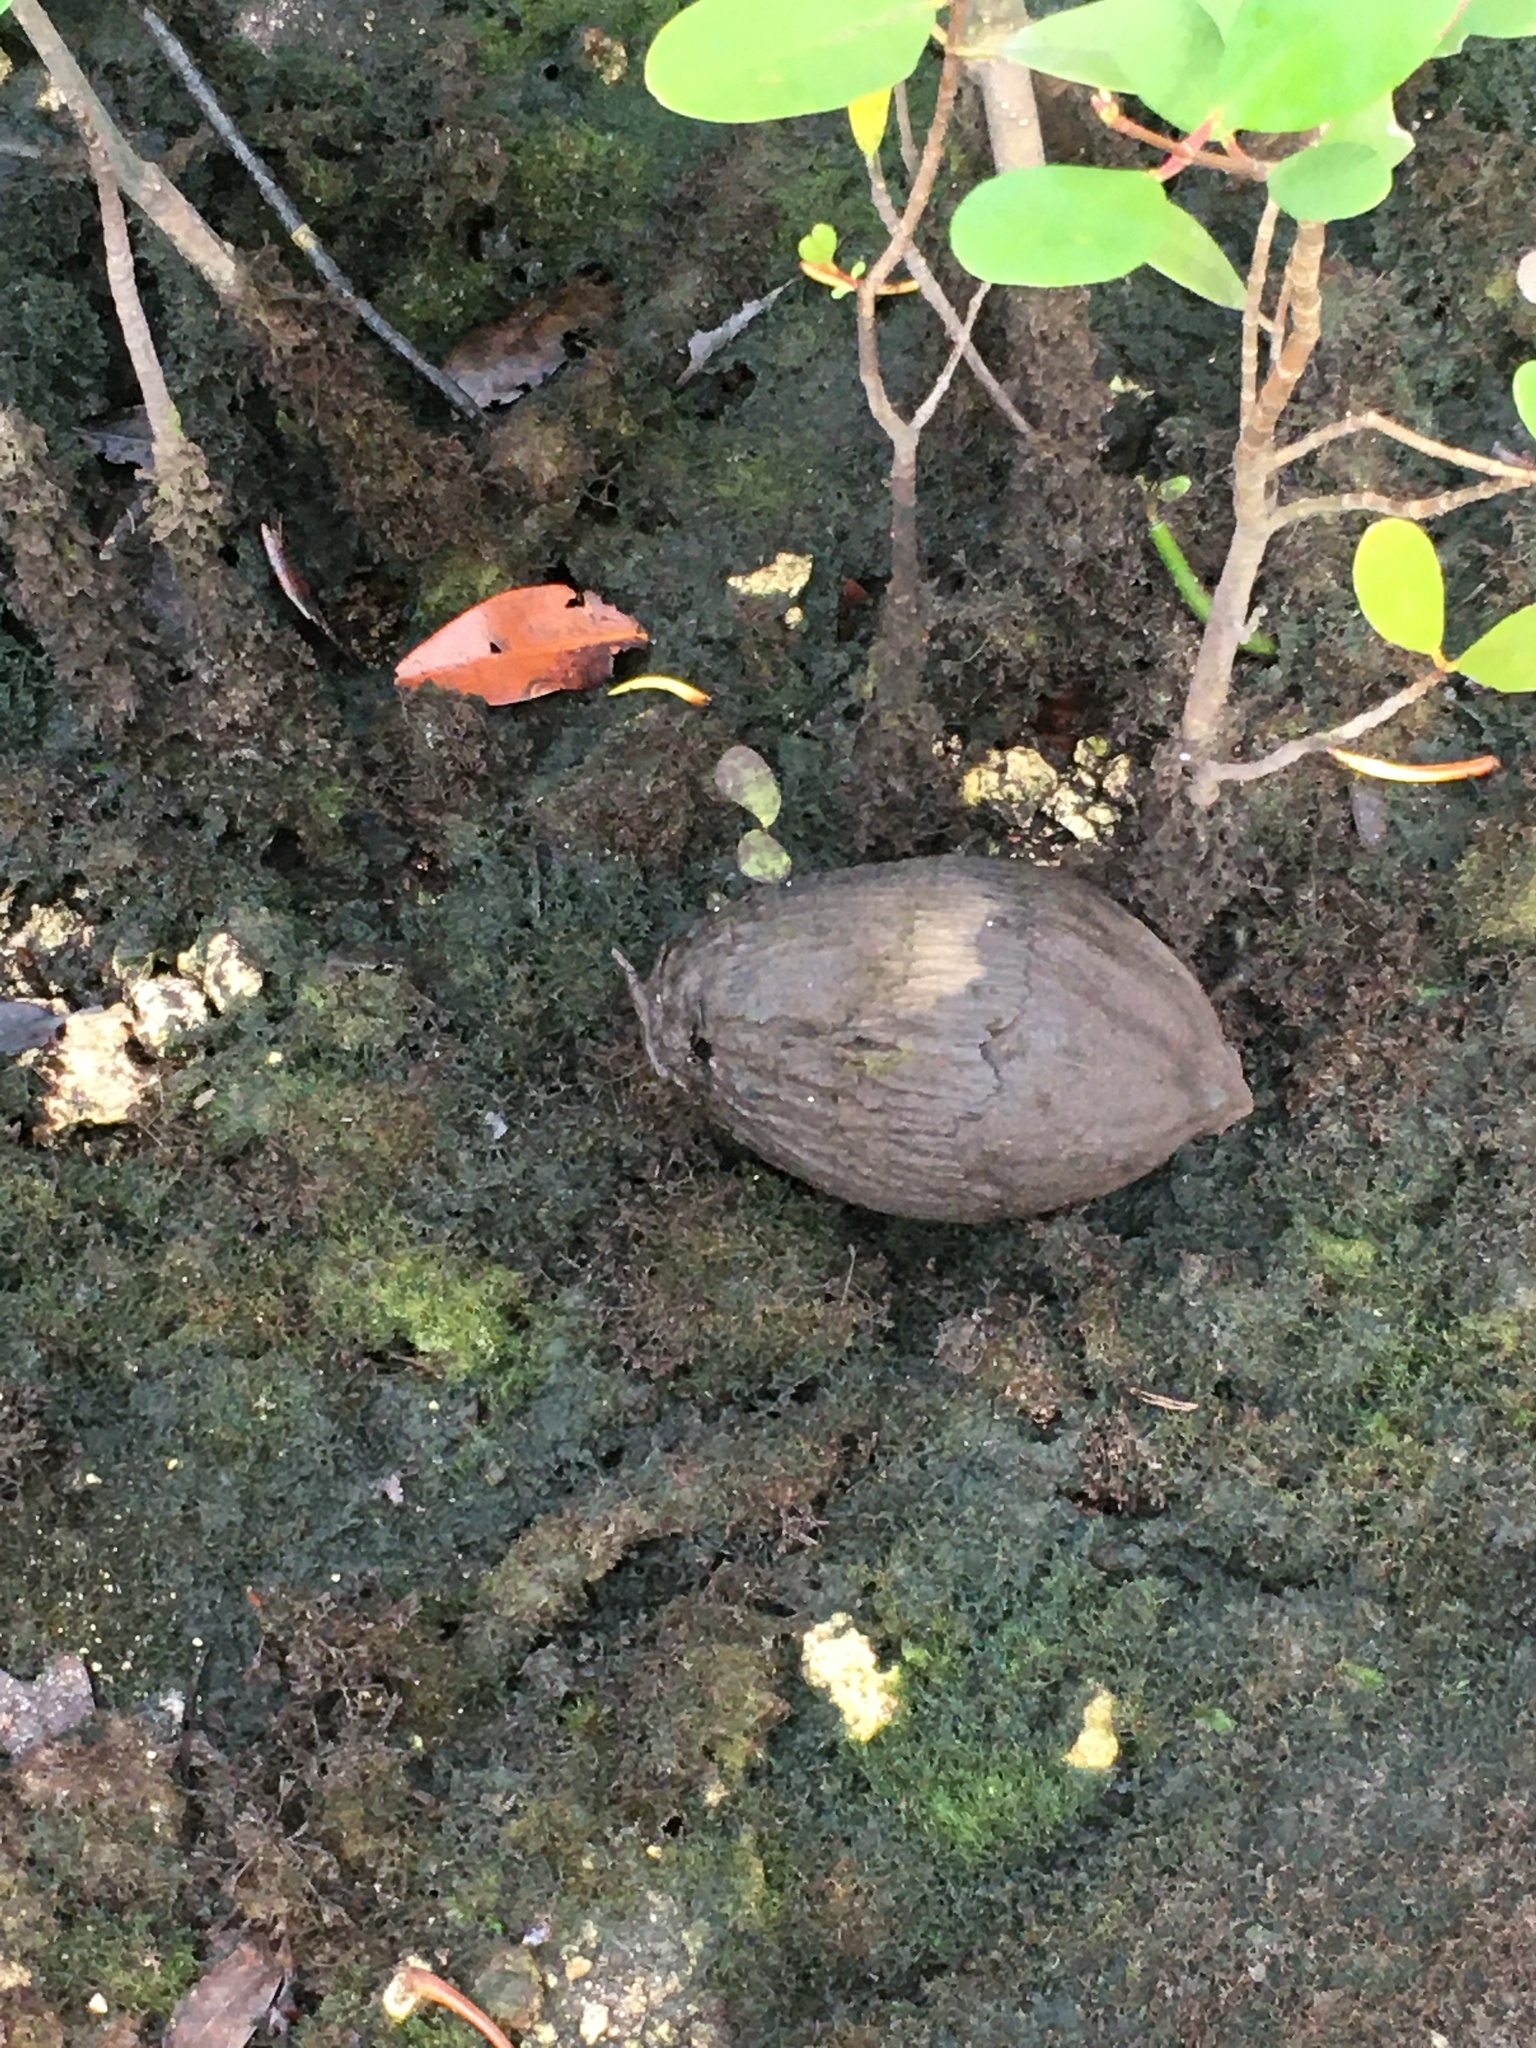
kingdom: Plantae
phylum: Tracheophyta
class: Liliopsida
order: Arecales
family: Arecaceae
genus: Cocos
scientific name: Cocos nucifera
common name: Coconut palm
